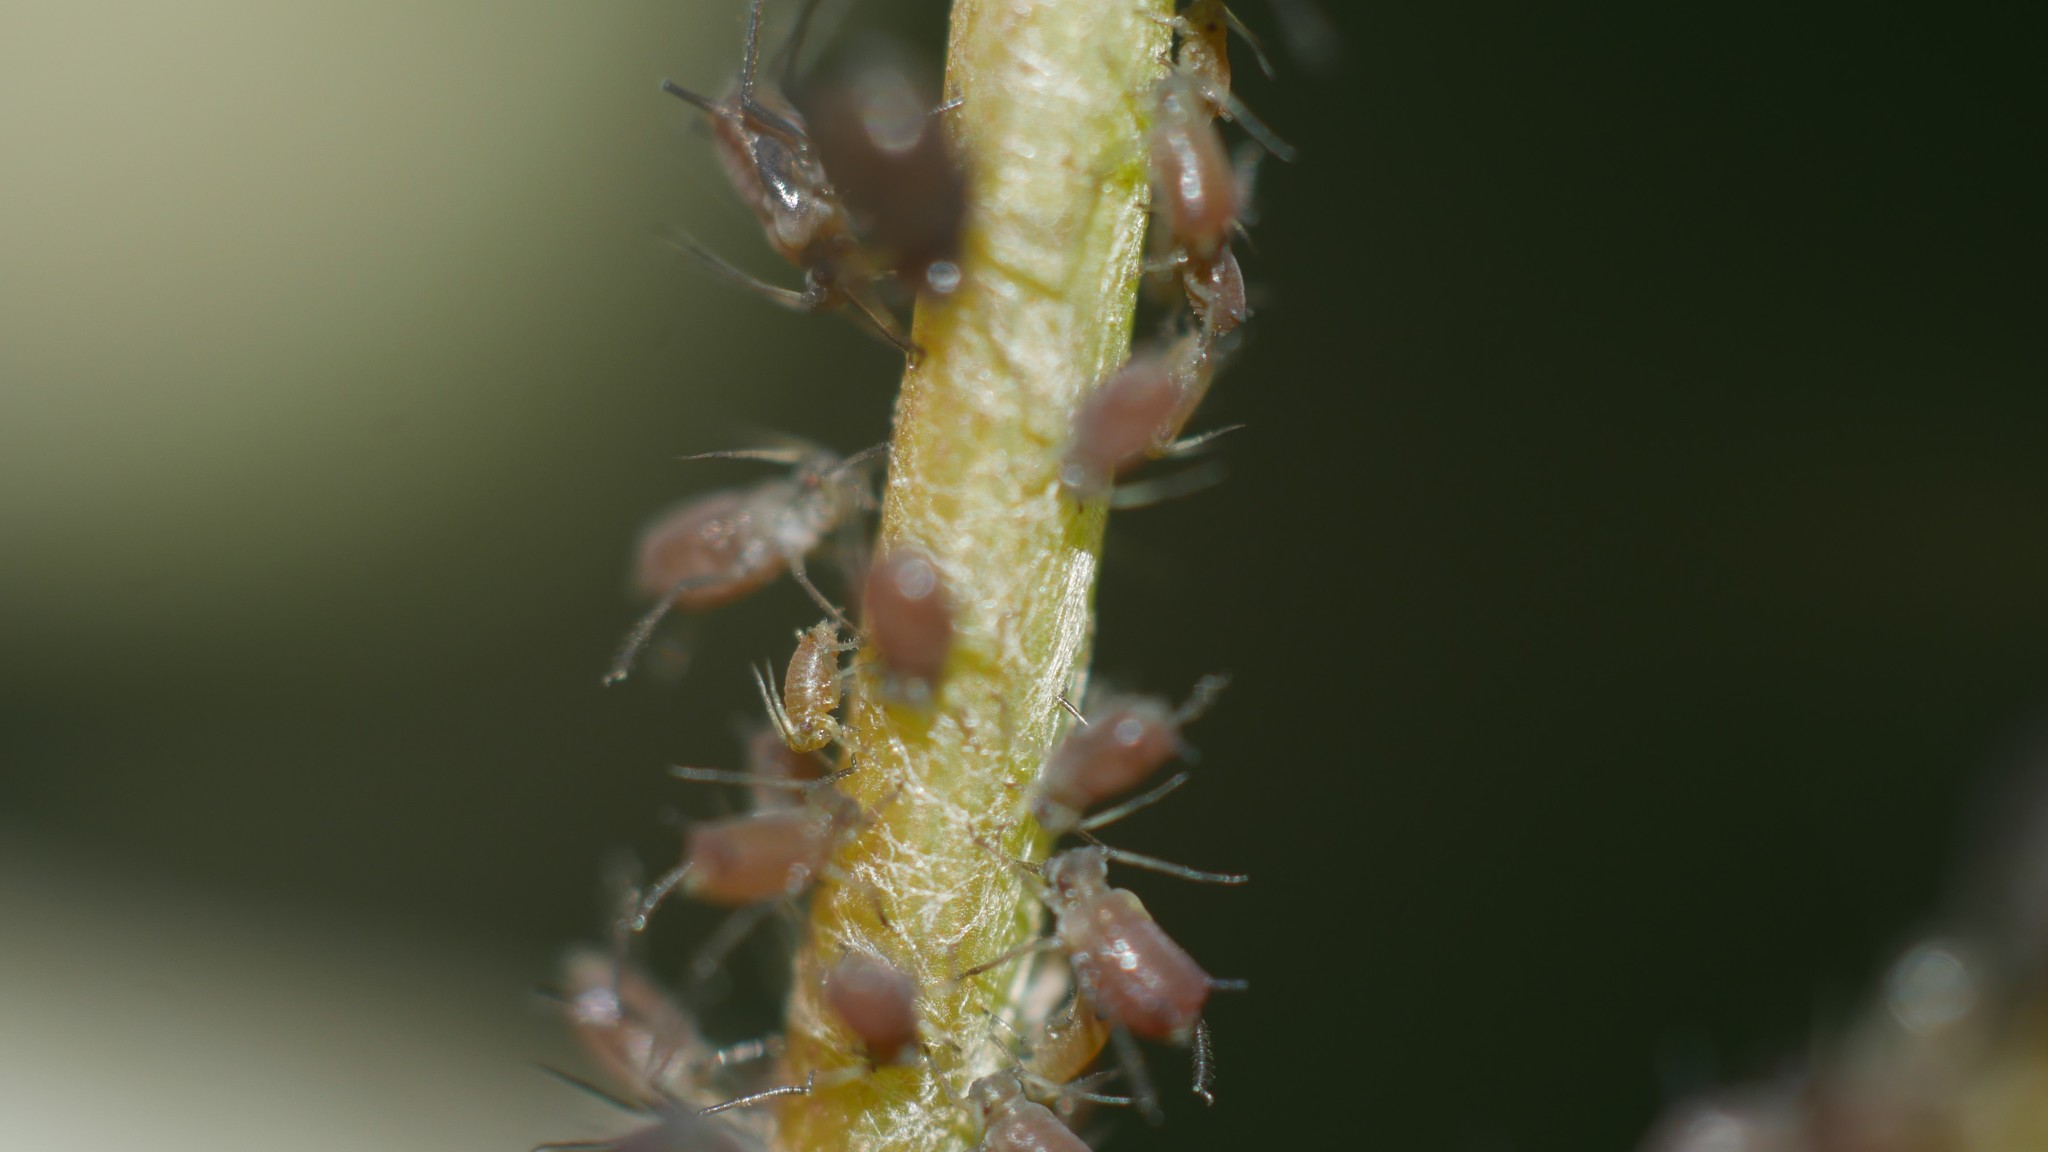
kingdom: Animalia
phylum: Arthropoda
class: Insecta
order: Hemiptera
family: Aphididae
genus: Aphis
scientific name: Aphis illinoisensis
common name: Grapevine aphid
